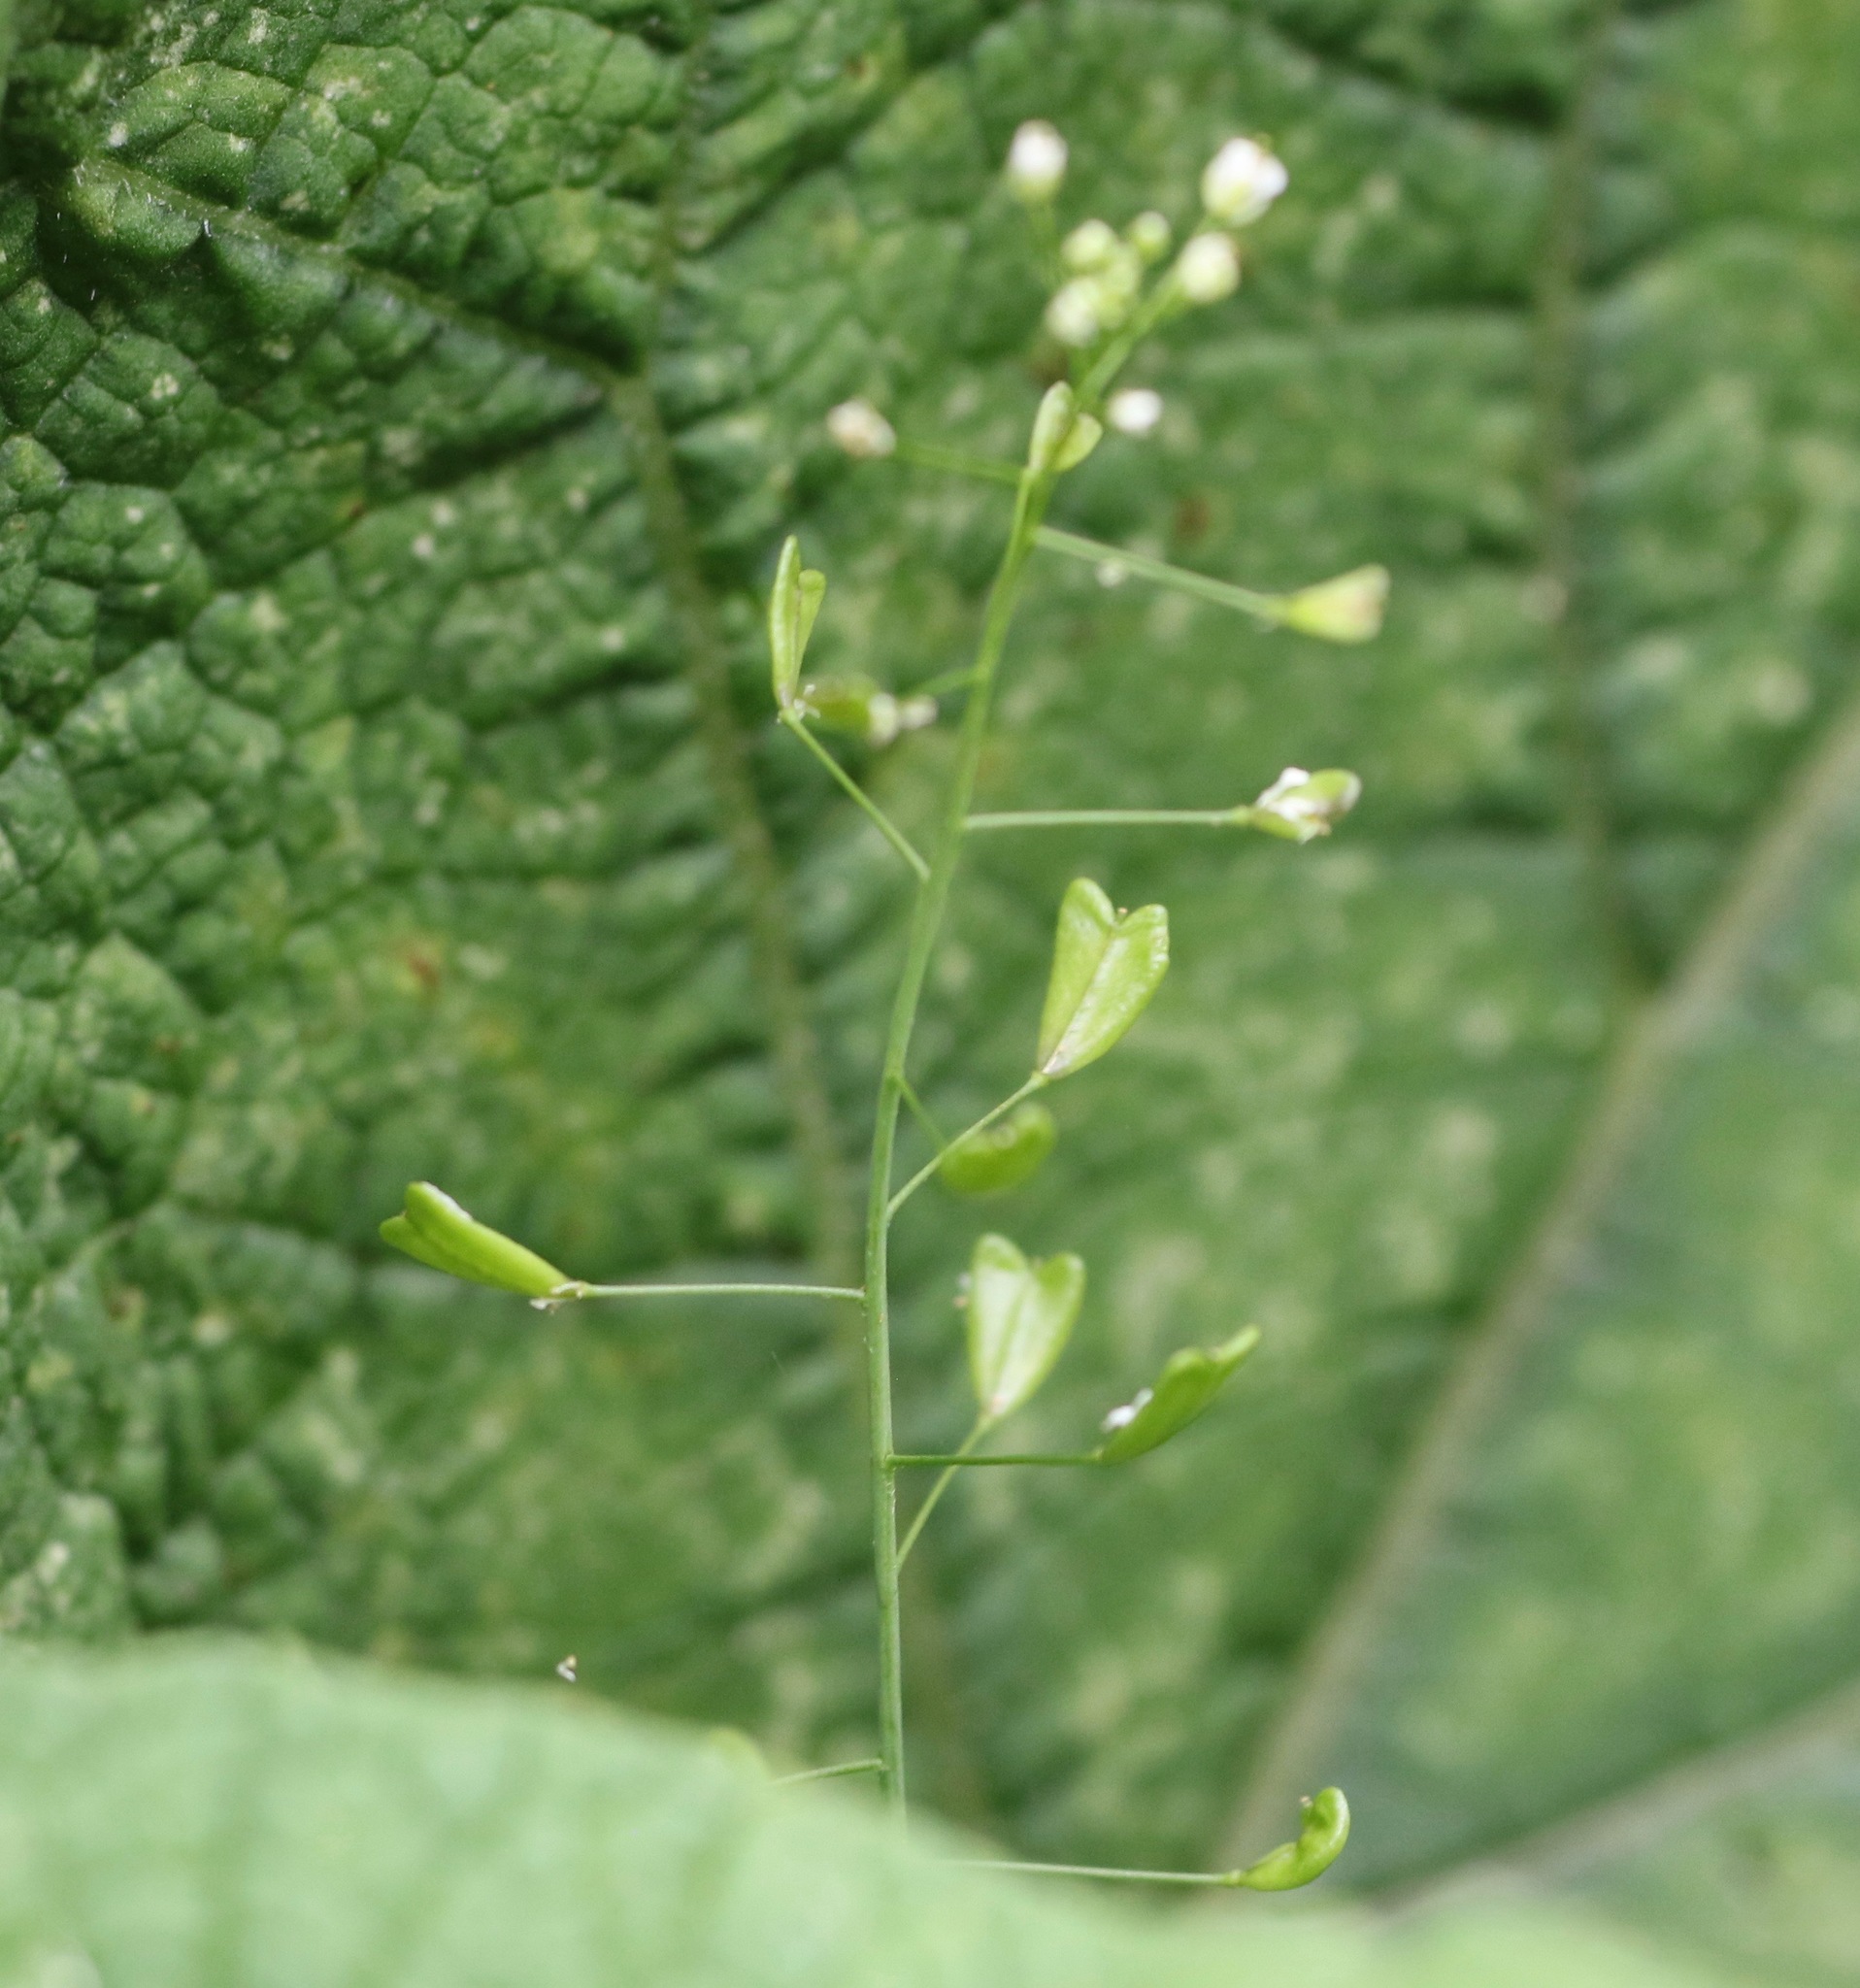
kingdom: Plantae
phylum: Tracheophyta
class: Magnoliopsida
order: Brassicales
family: Brassicaceae
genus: Capsella
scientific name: Capsella bursa-pastoris
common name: Shepherd's purse
